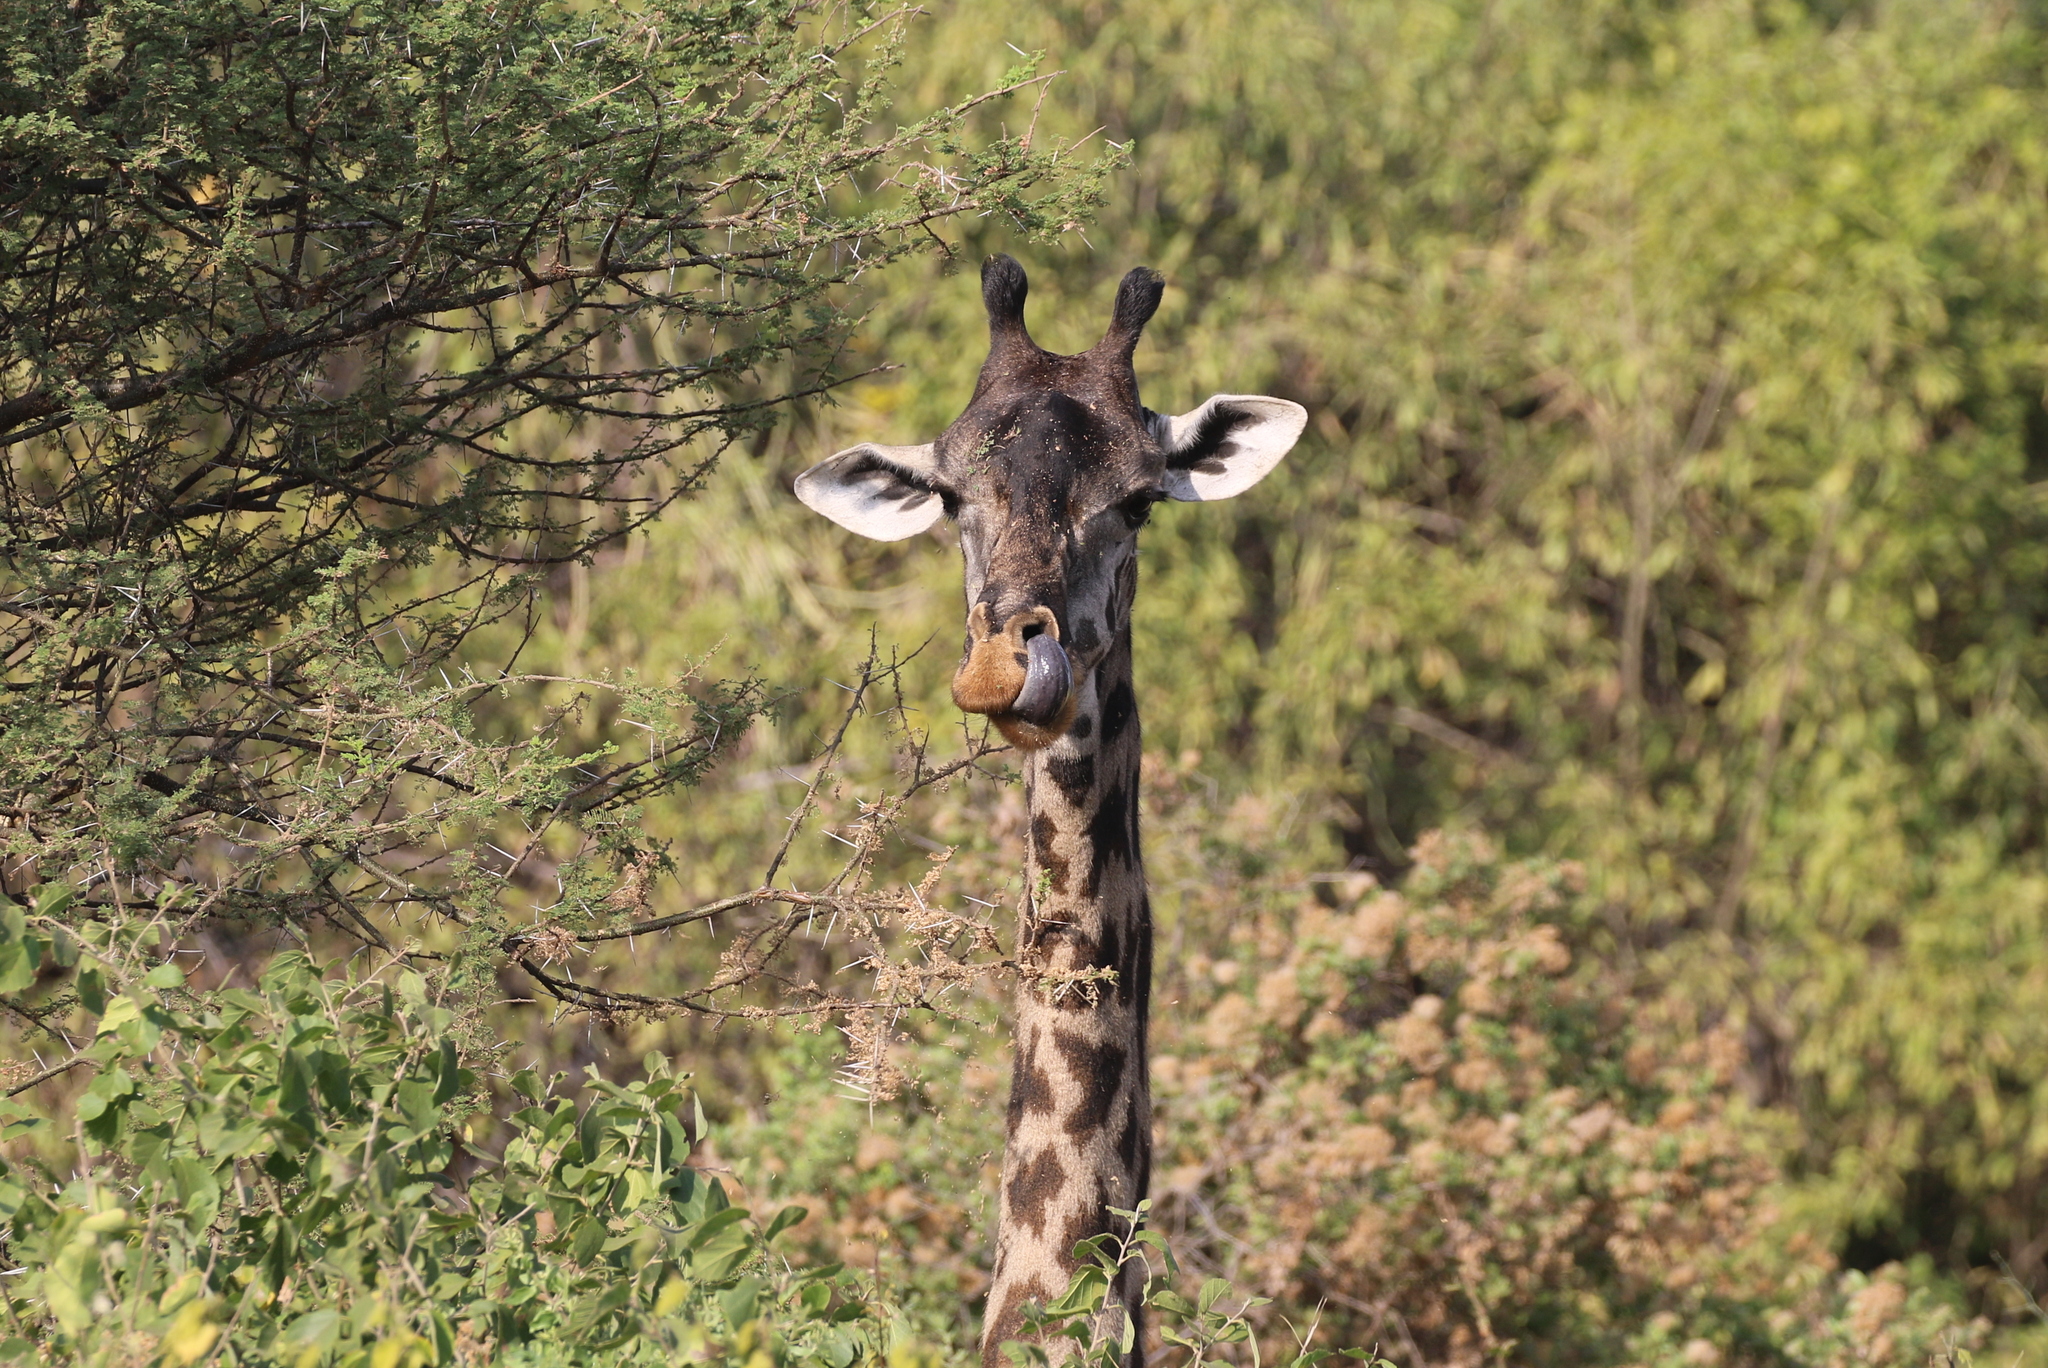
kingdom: Animalia
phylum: Chordata
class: Mammalia
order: Artiodactyla
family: Giraffidae
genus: Giraffa
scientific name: Giraffa tippelskirchi
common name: Masai giraffe
